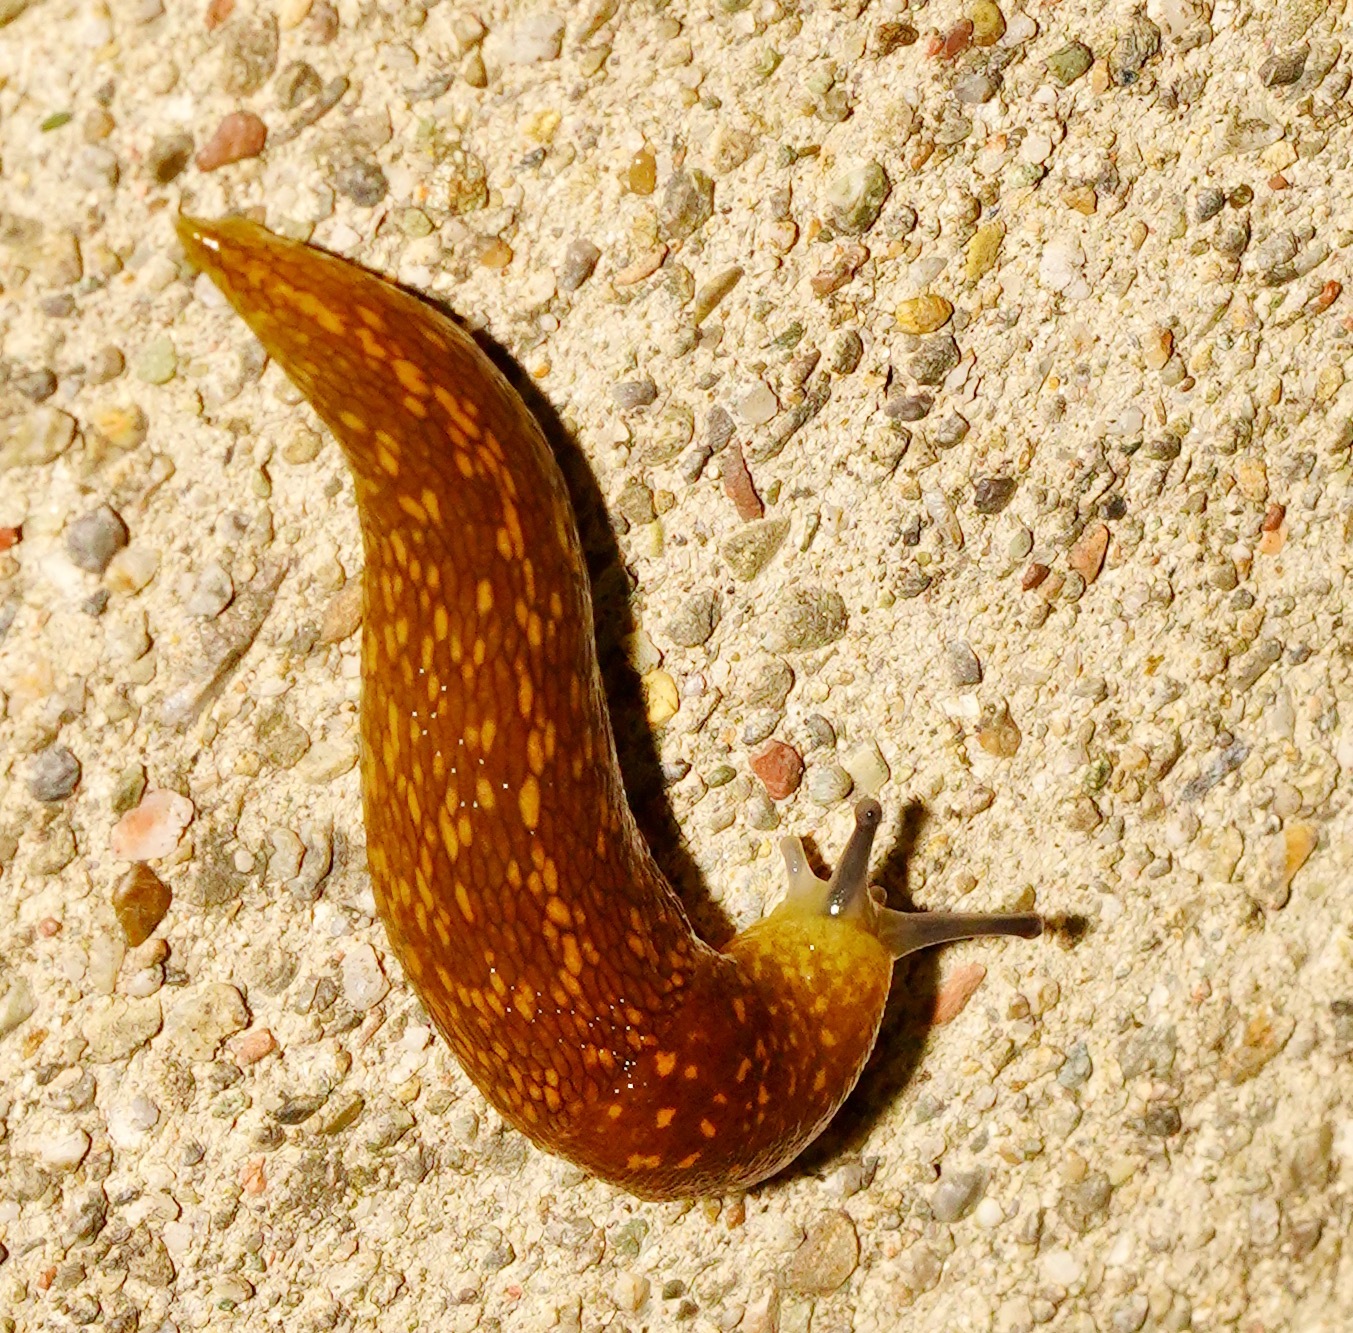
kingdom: Animalia
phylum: Mollusca
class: Gastropoda
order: Stylommatophora
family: Limacidae
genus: Limacus
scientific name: Limacus flavus
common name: Yellow gardenslug
